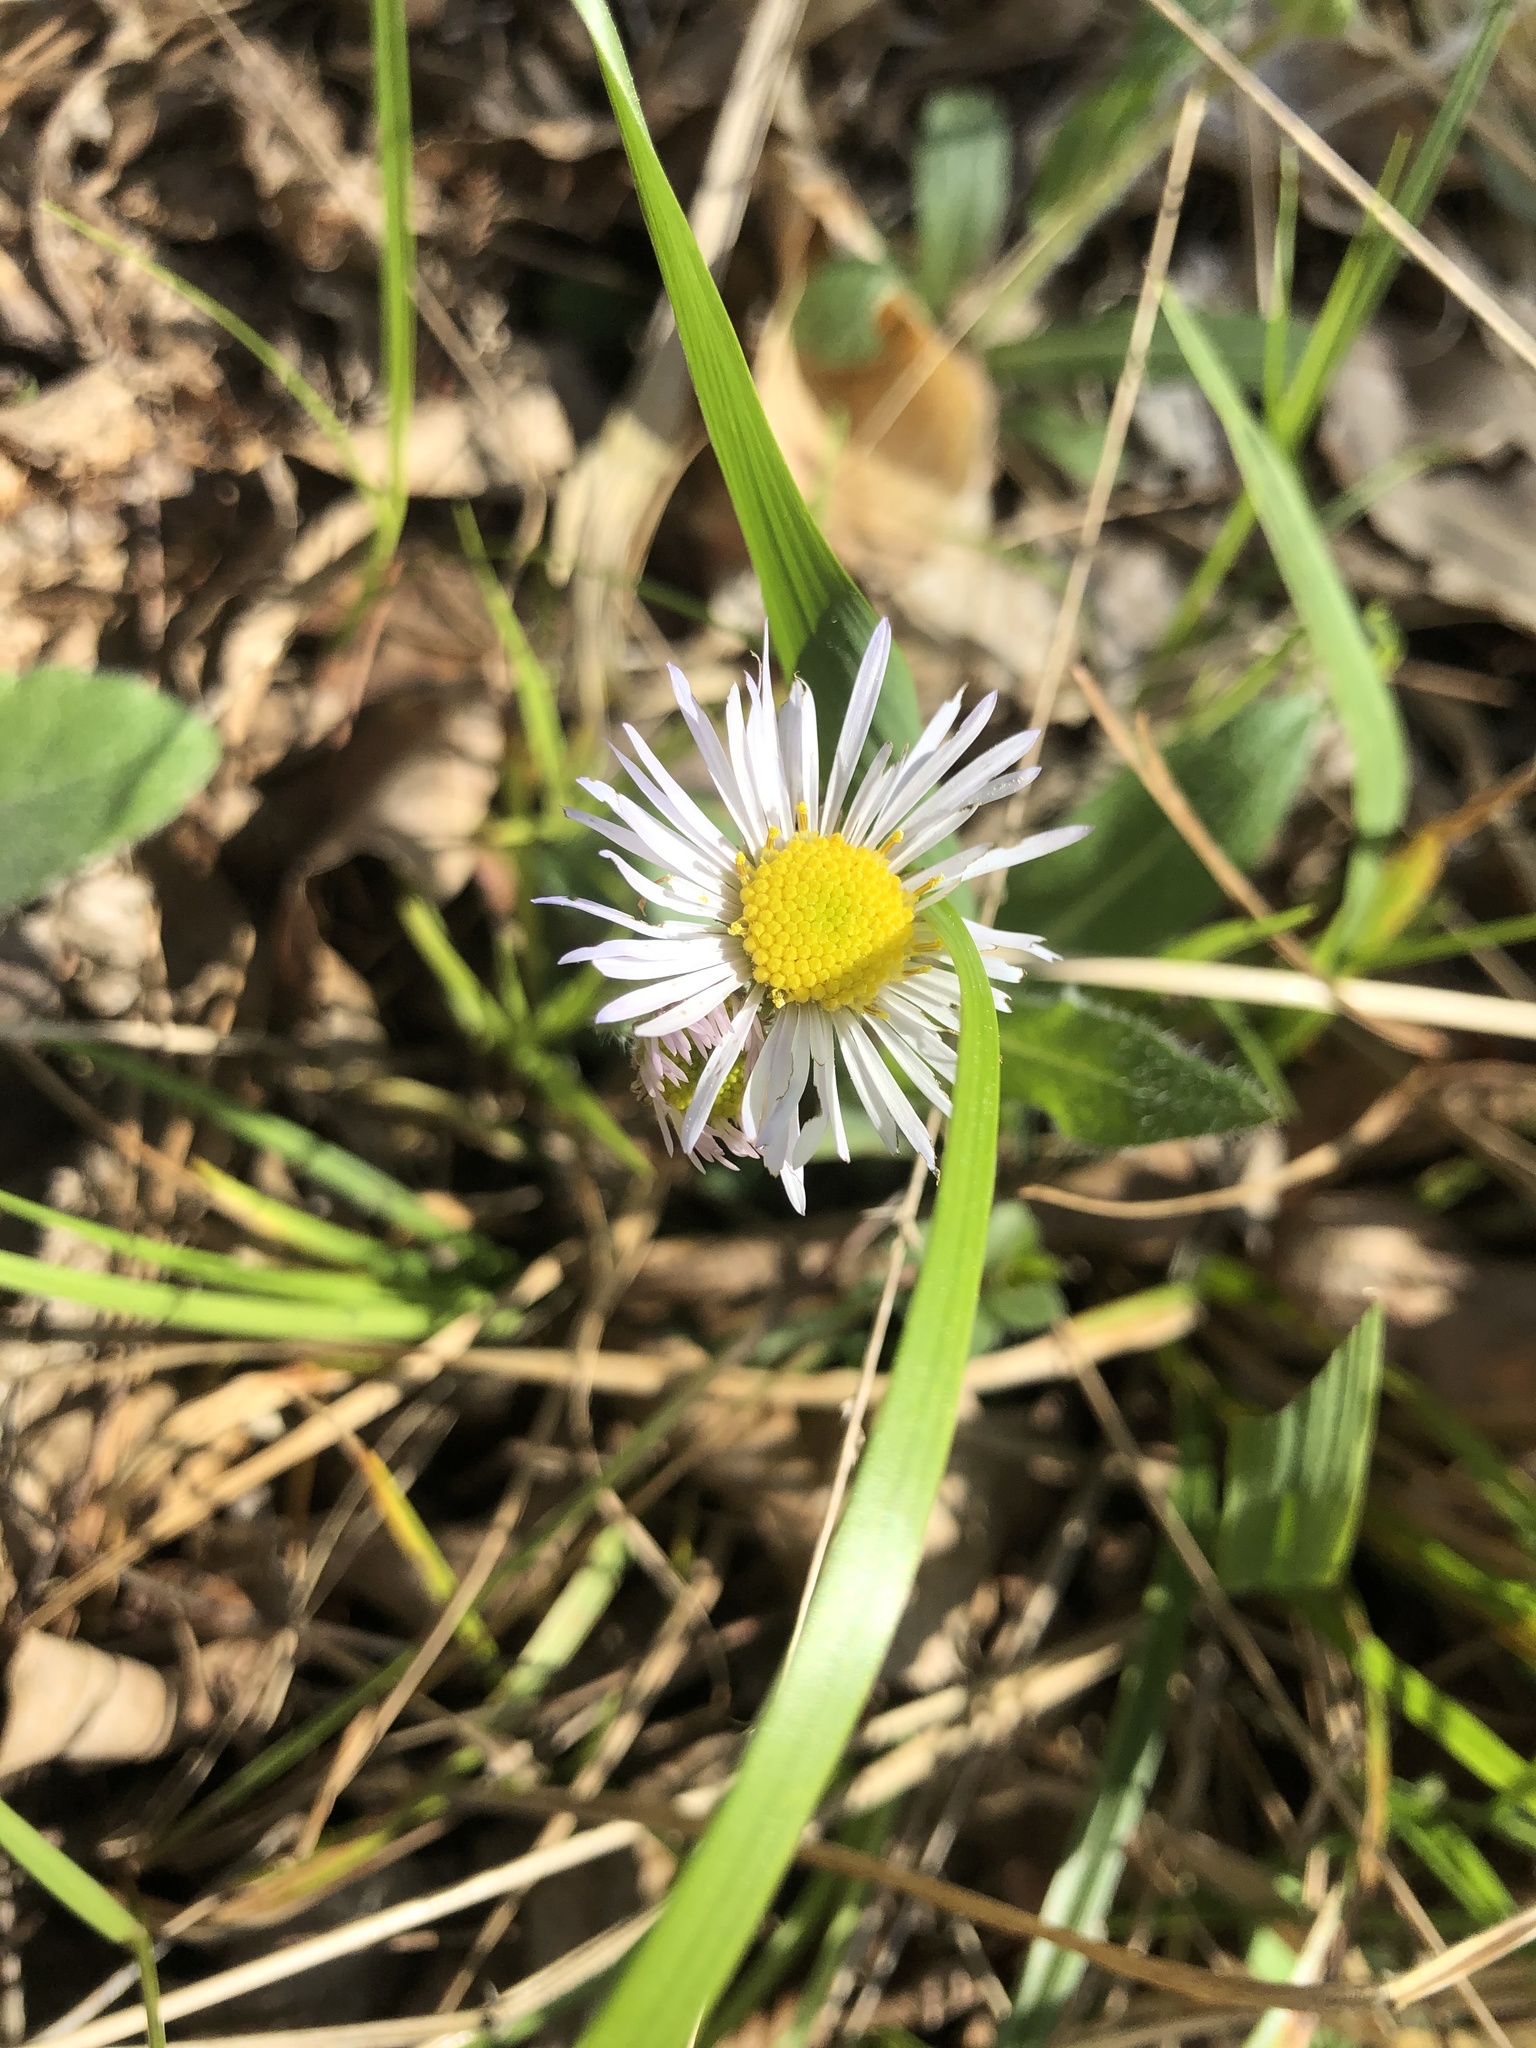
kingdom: Plantae
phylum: Tracheophyta
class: Magnoliopsida
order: Asterales
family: Asteraceae
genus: Erigeron
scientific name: Erigeron pulchellus
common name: Hairy fleabane
